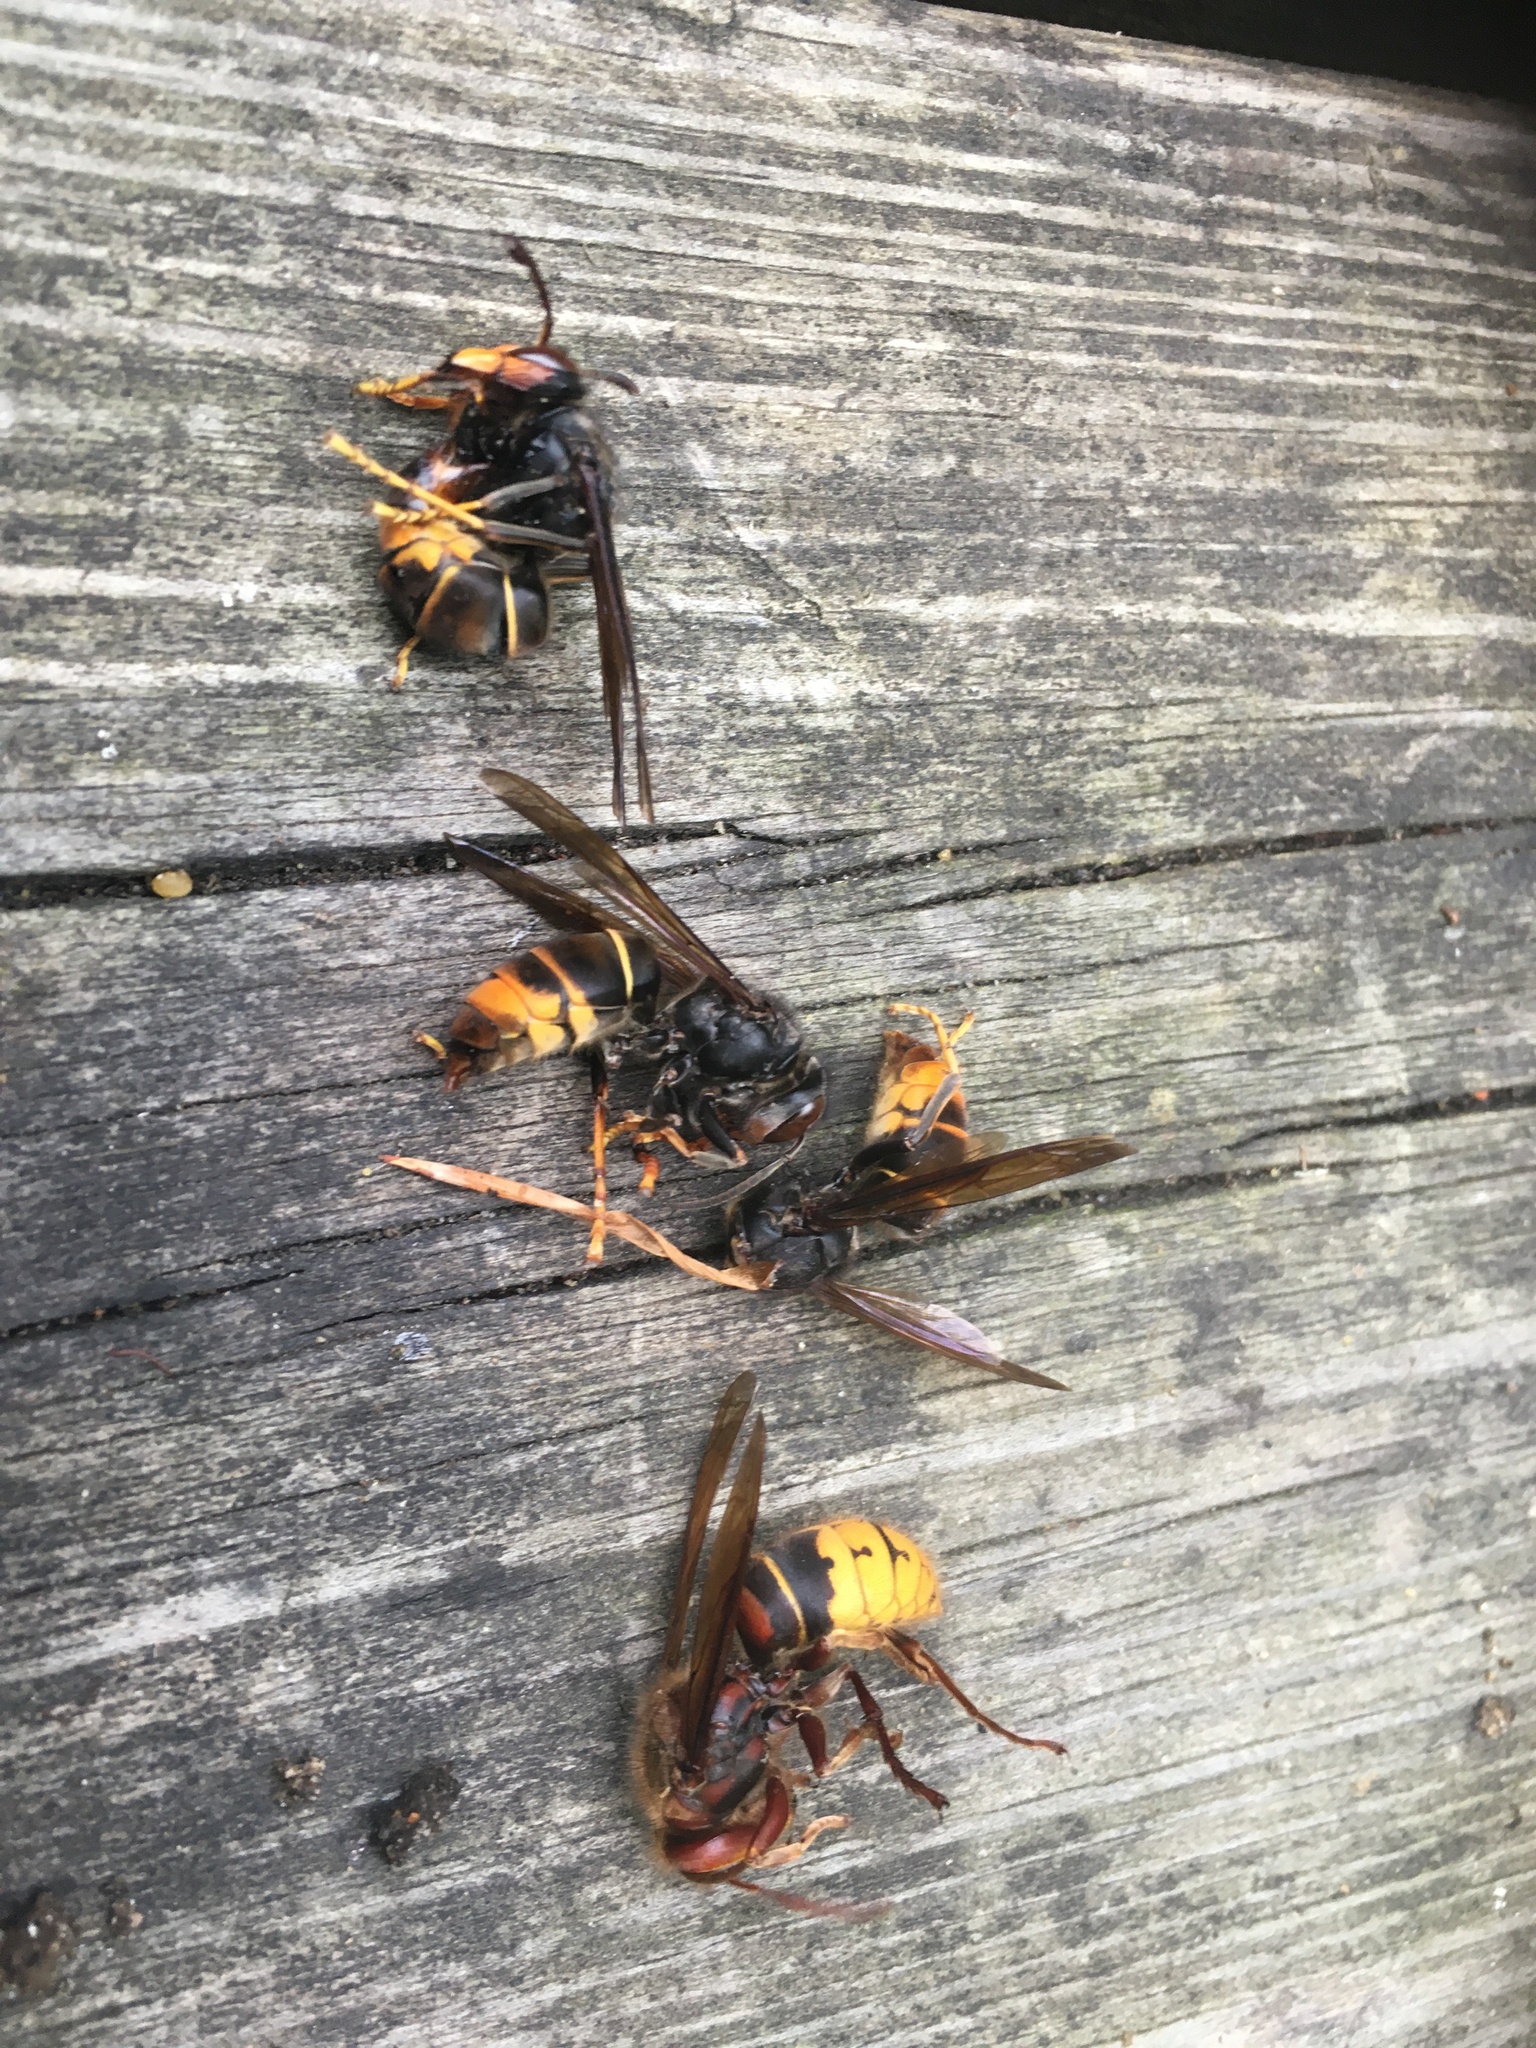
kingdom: Animalia
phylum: Arthropoda
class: Insecta
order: Hymenoptera
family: Vespidae
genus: Vespa
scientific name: Vespa velutina
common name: Asian hornet
